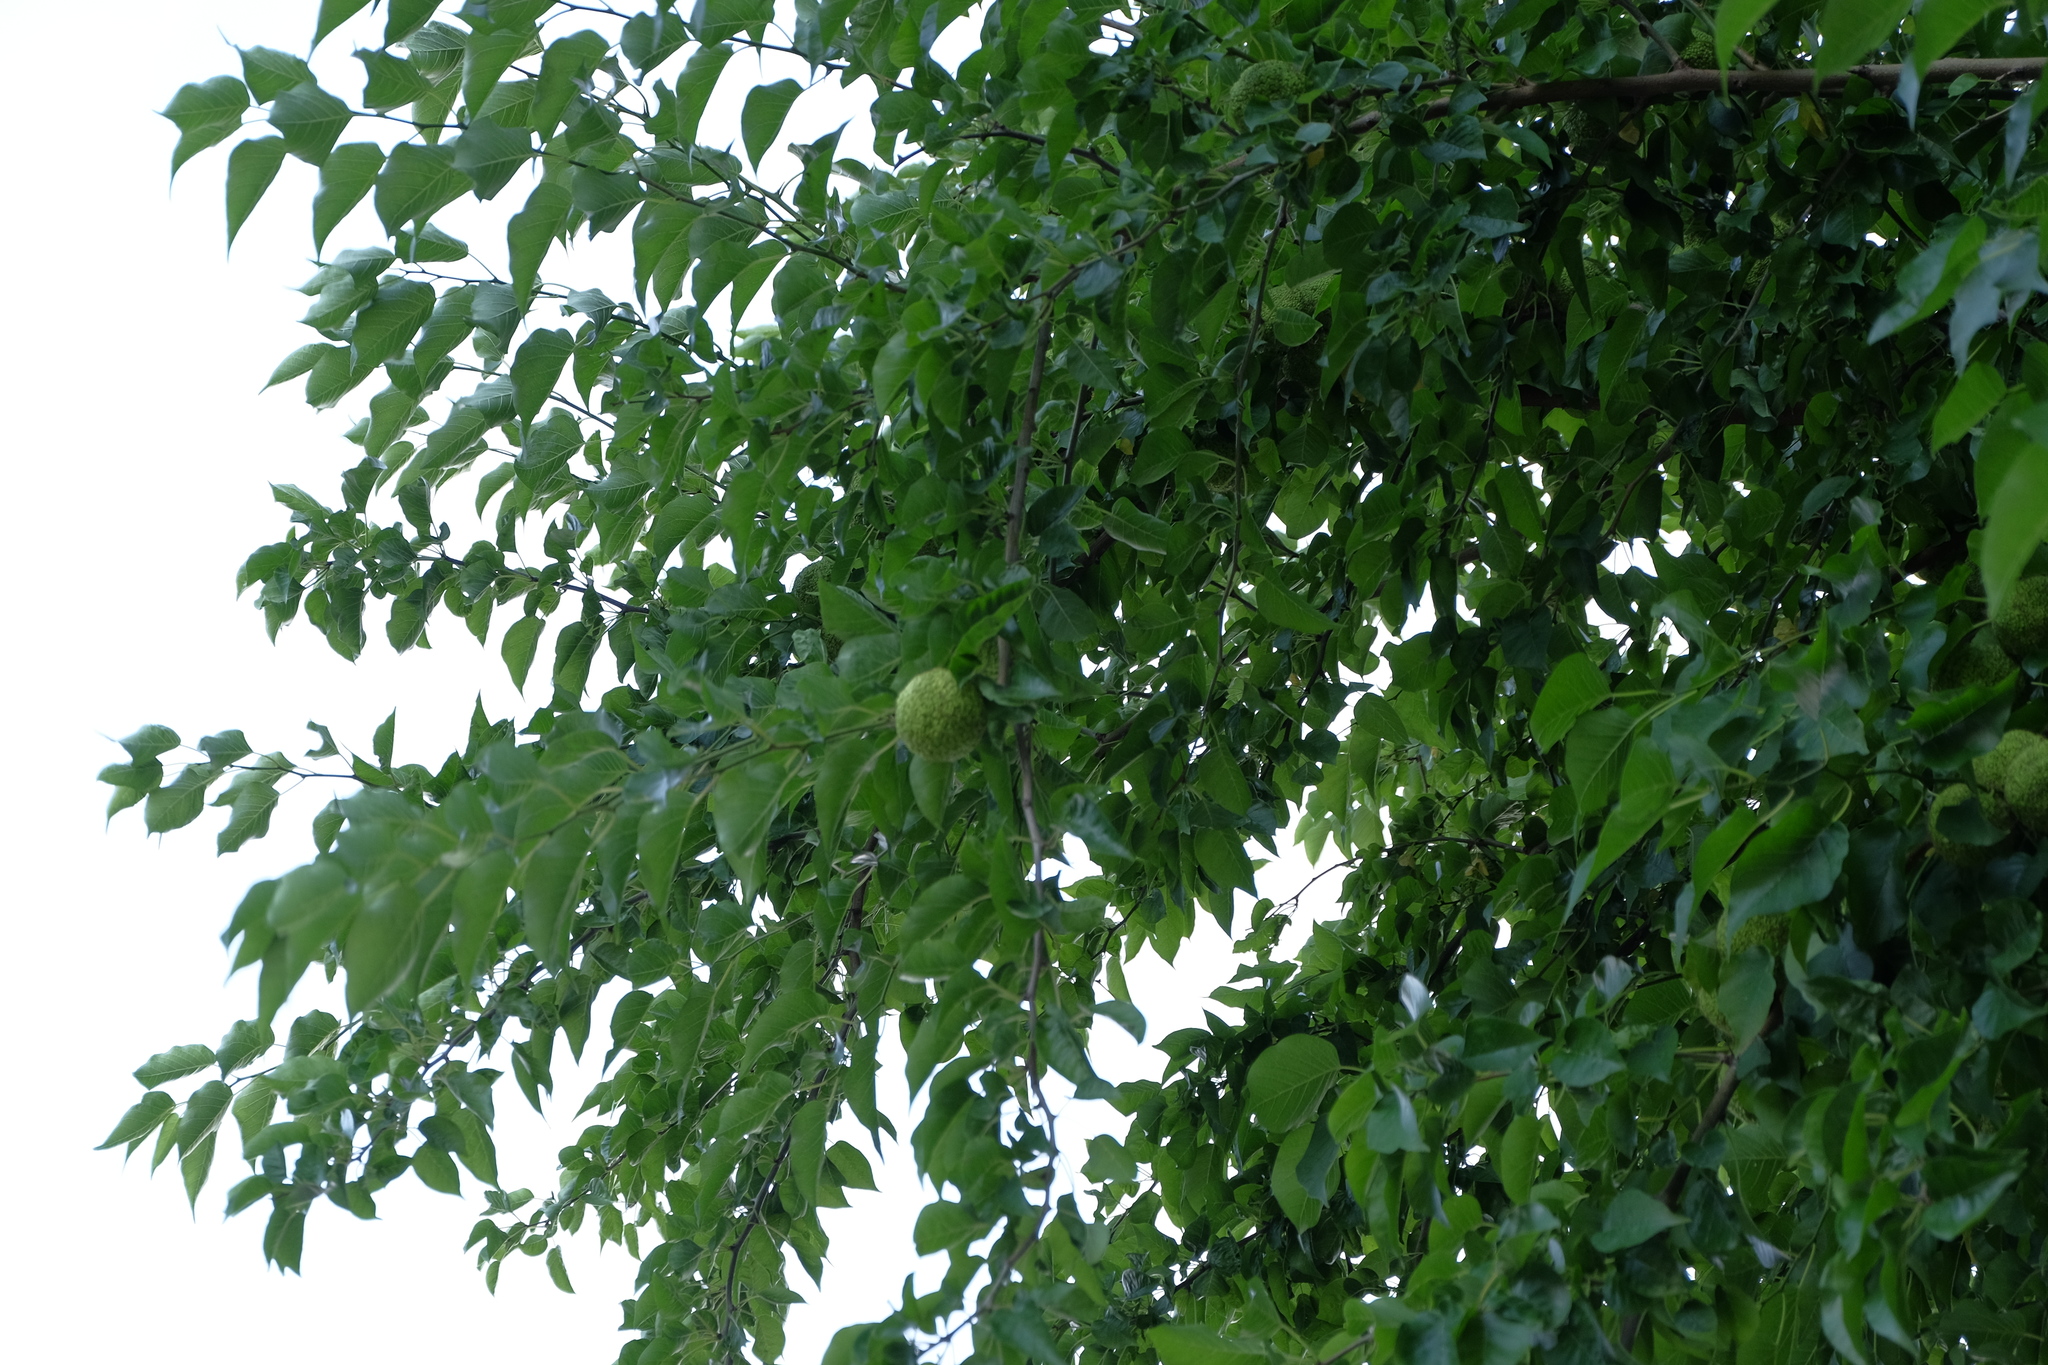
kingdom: Plantae
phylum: Tracheophyta
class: Magnoliopsida
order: Rosales
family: Moraceae
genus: Maclura
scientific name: Maclura pomifera
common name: Osage-orange
